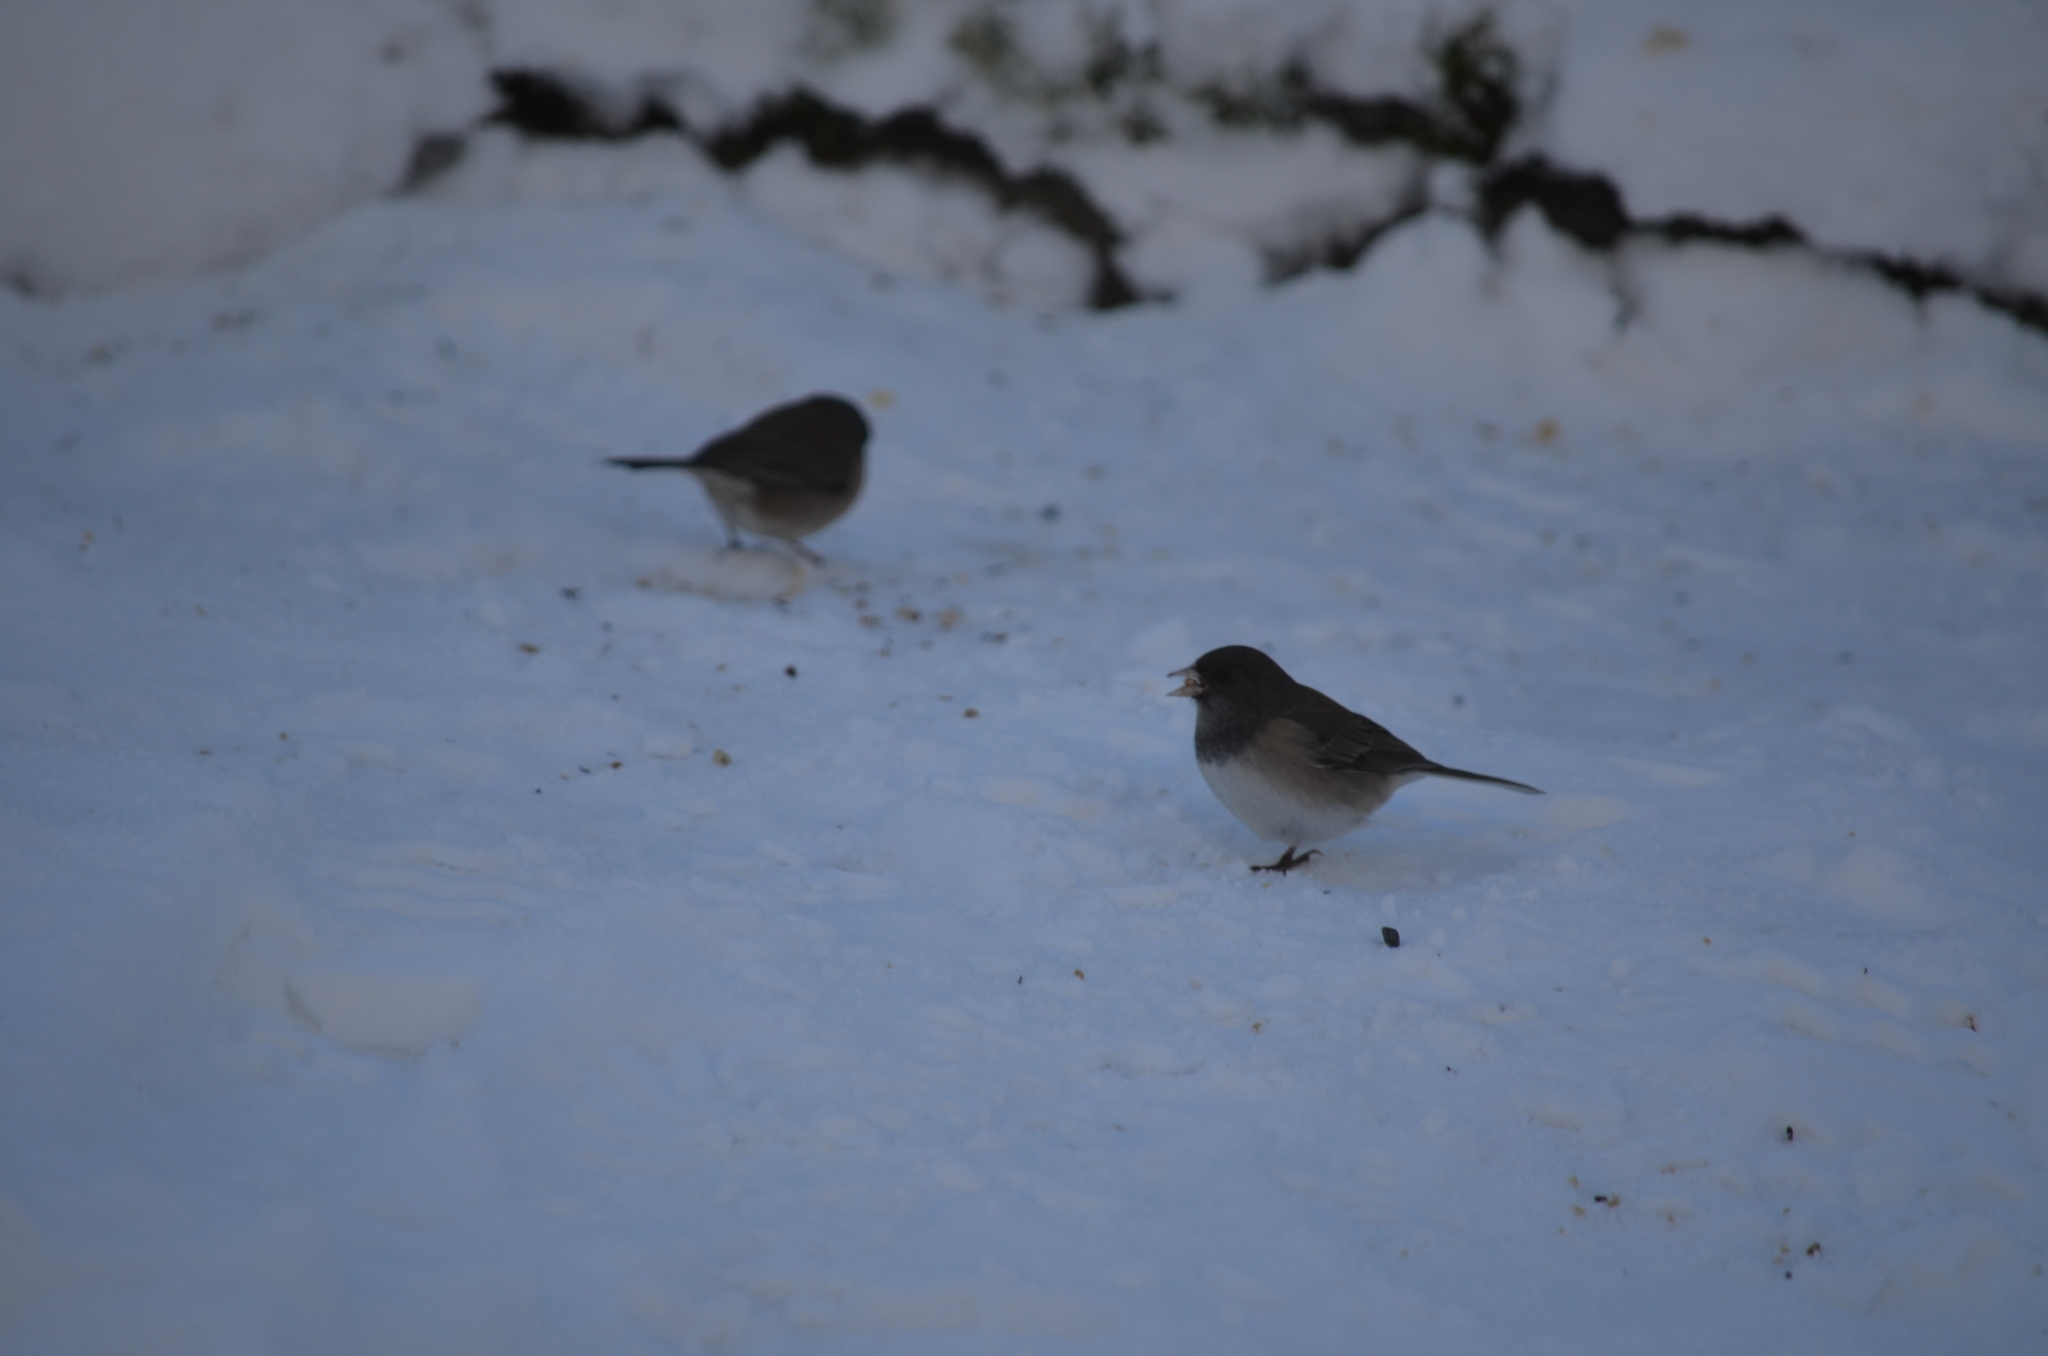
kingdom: Animalia
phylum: Chordata
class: Aves
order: Passeriformes
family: Passerellidae
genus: Junco
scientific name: Junco hyemalis
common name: Dark-eyed junco
